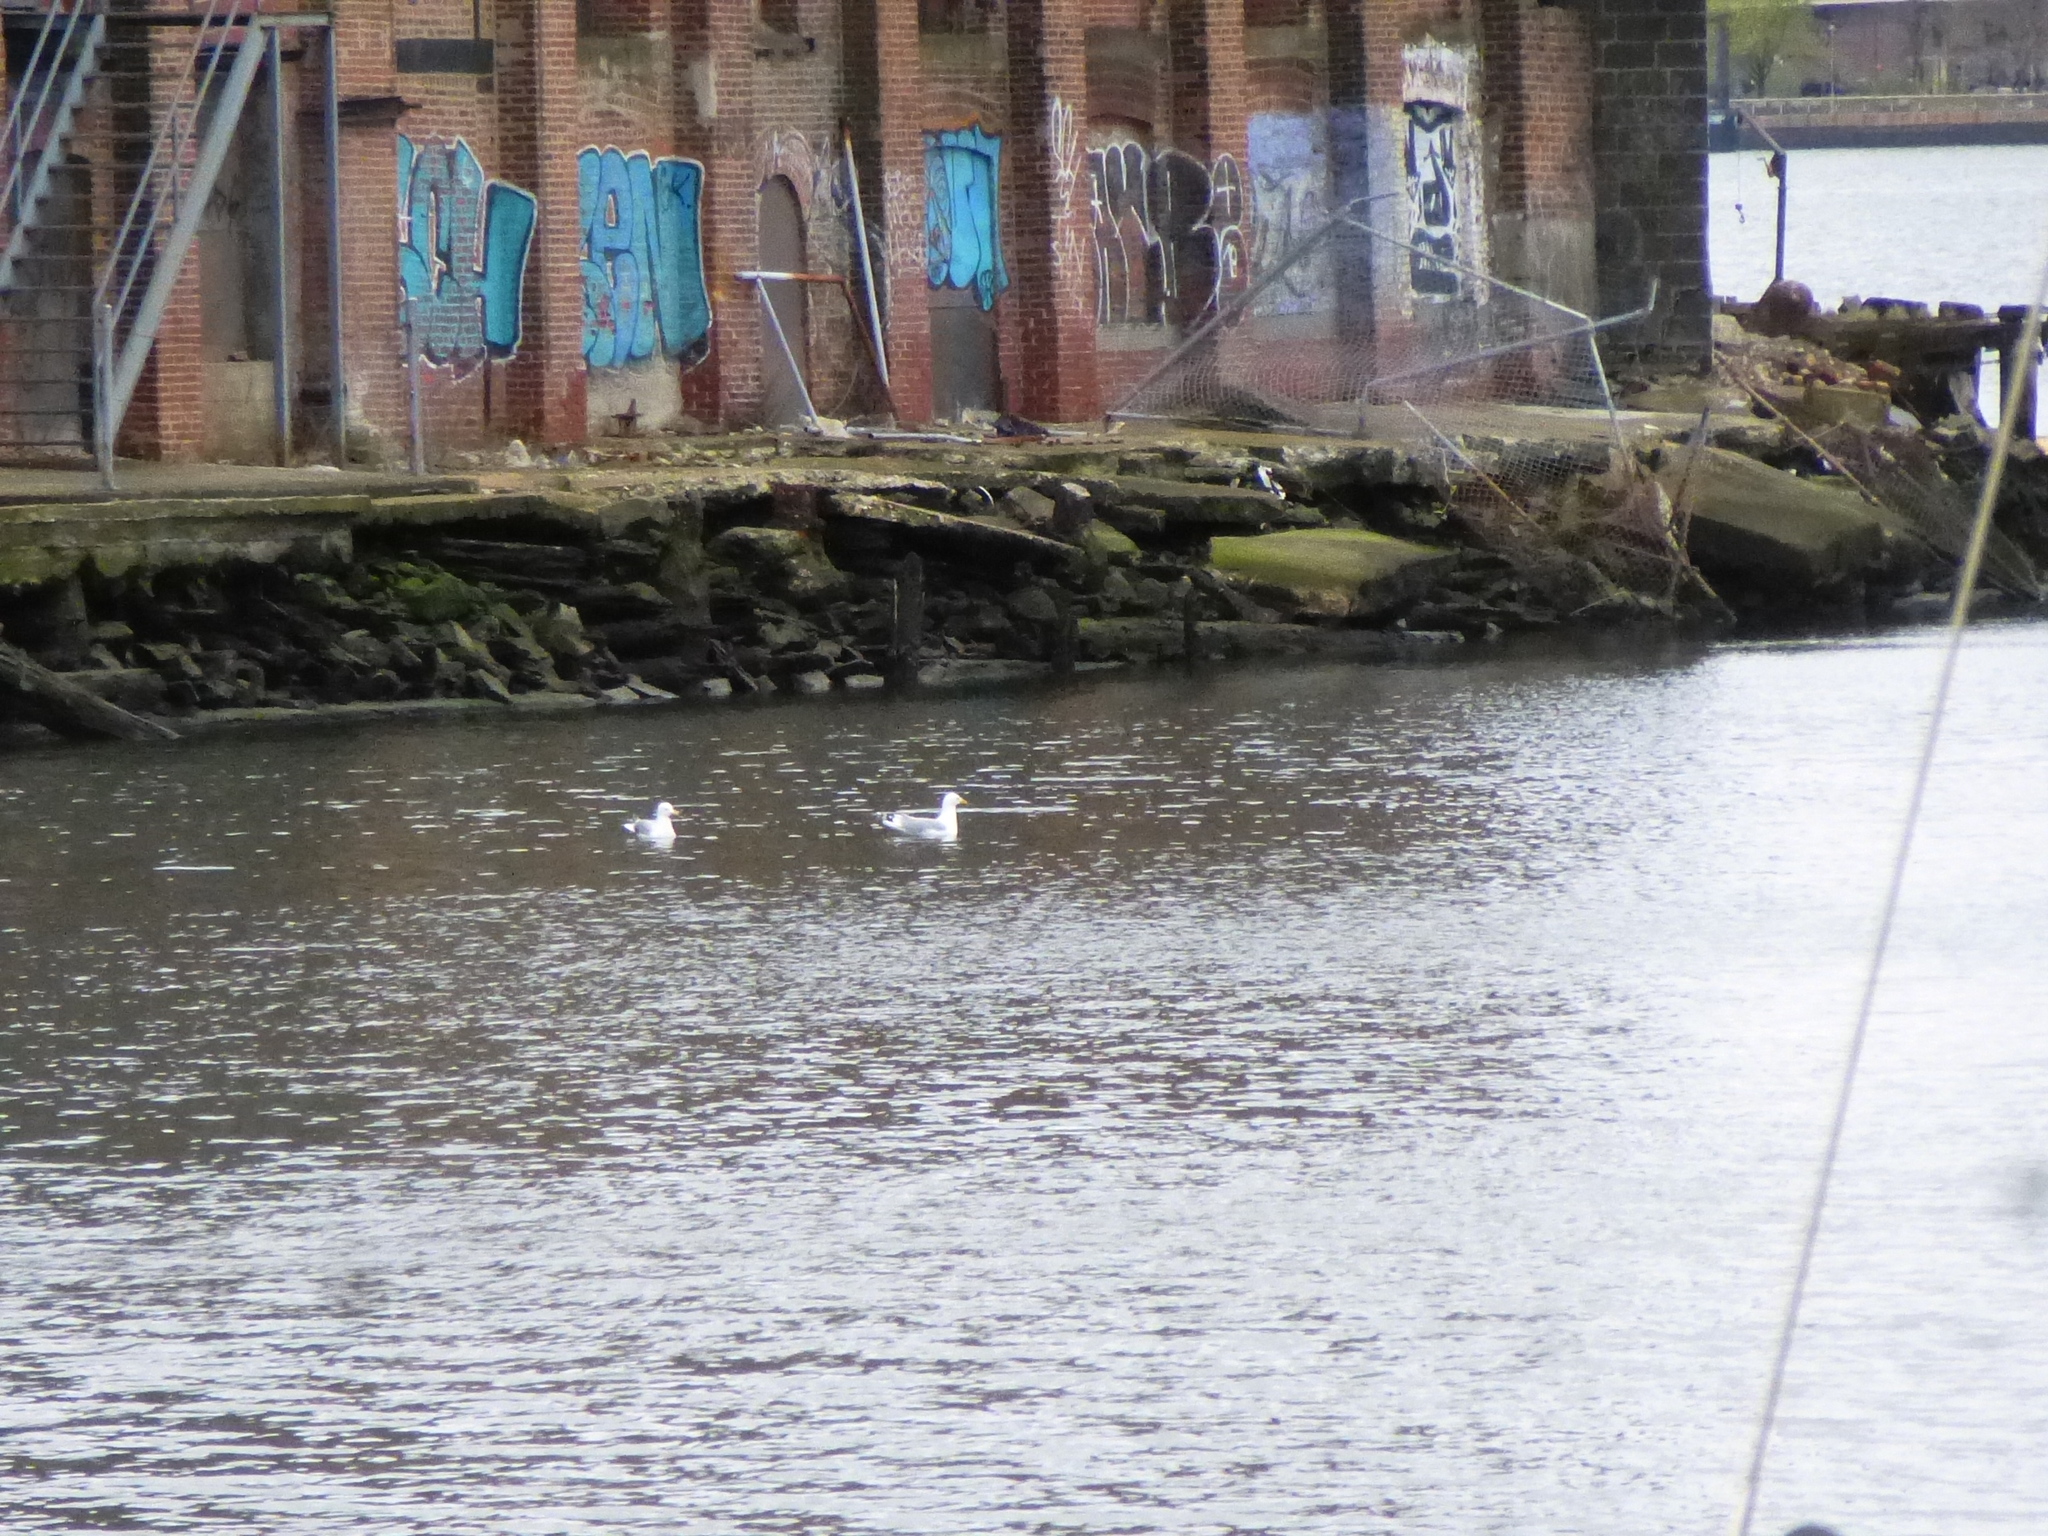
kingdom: Animalia
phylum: Chordata
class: Aves
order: Charadriiformes
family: Laridae
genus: Larus
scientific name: Larus argentatus
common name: Herring gull
